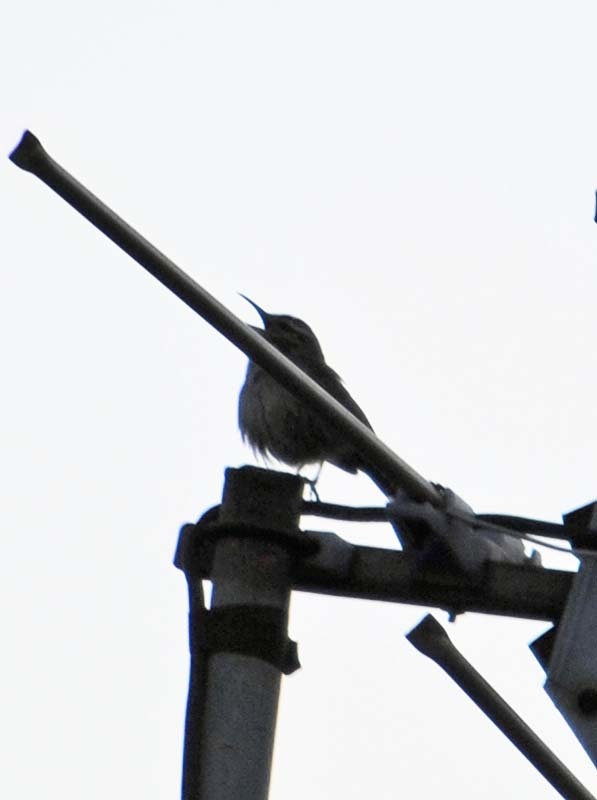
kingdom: Animalia
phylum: Chordata
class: Aves
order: Passeriformes
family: Troglodytidae
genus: Thryomanes
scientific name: Thryomanes bewickii
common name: Bewick's wren
